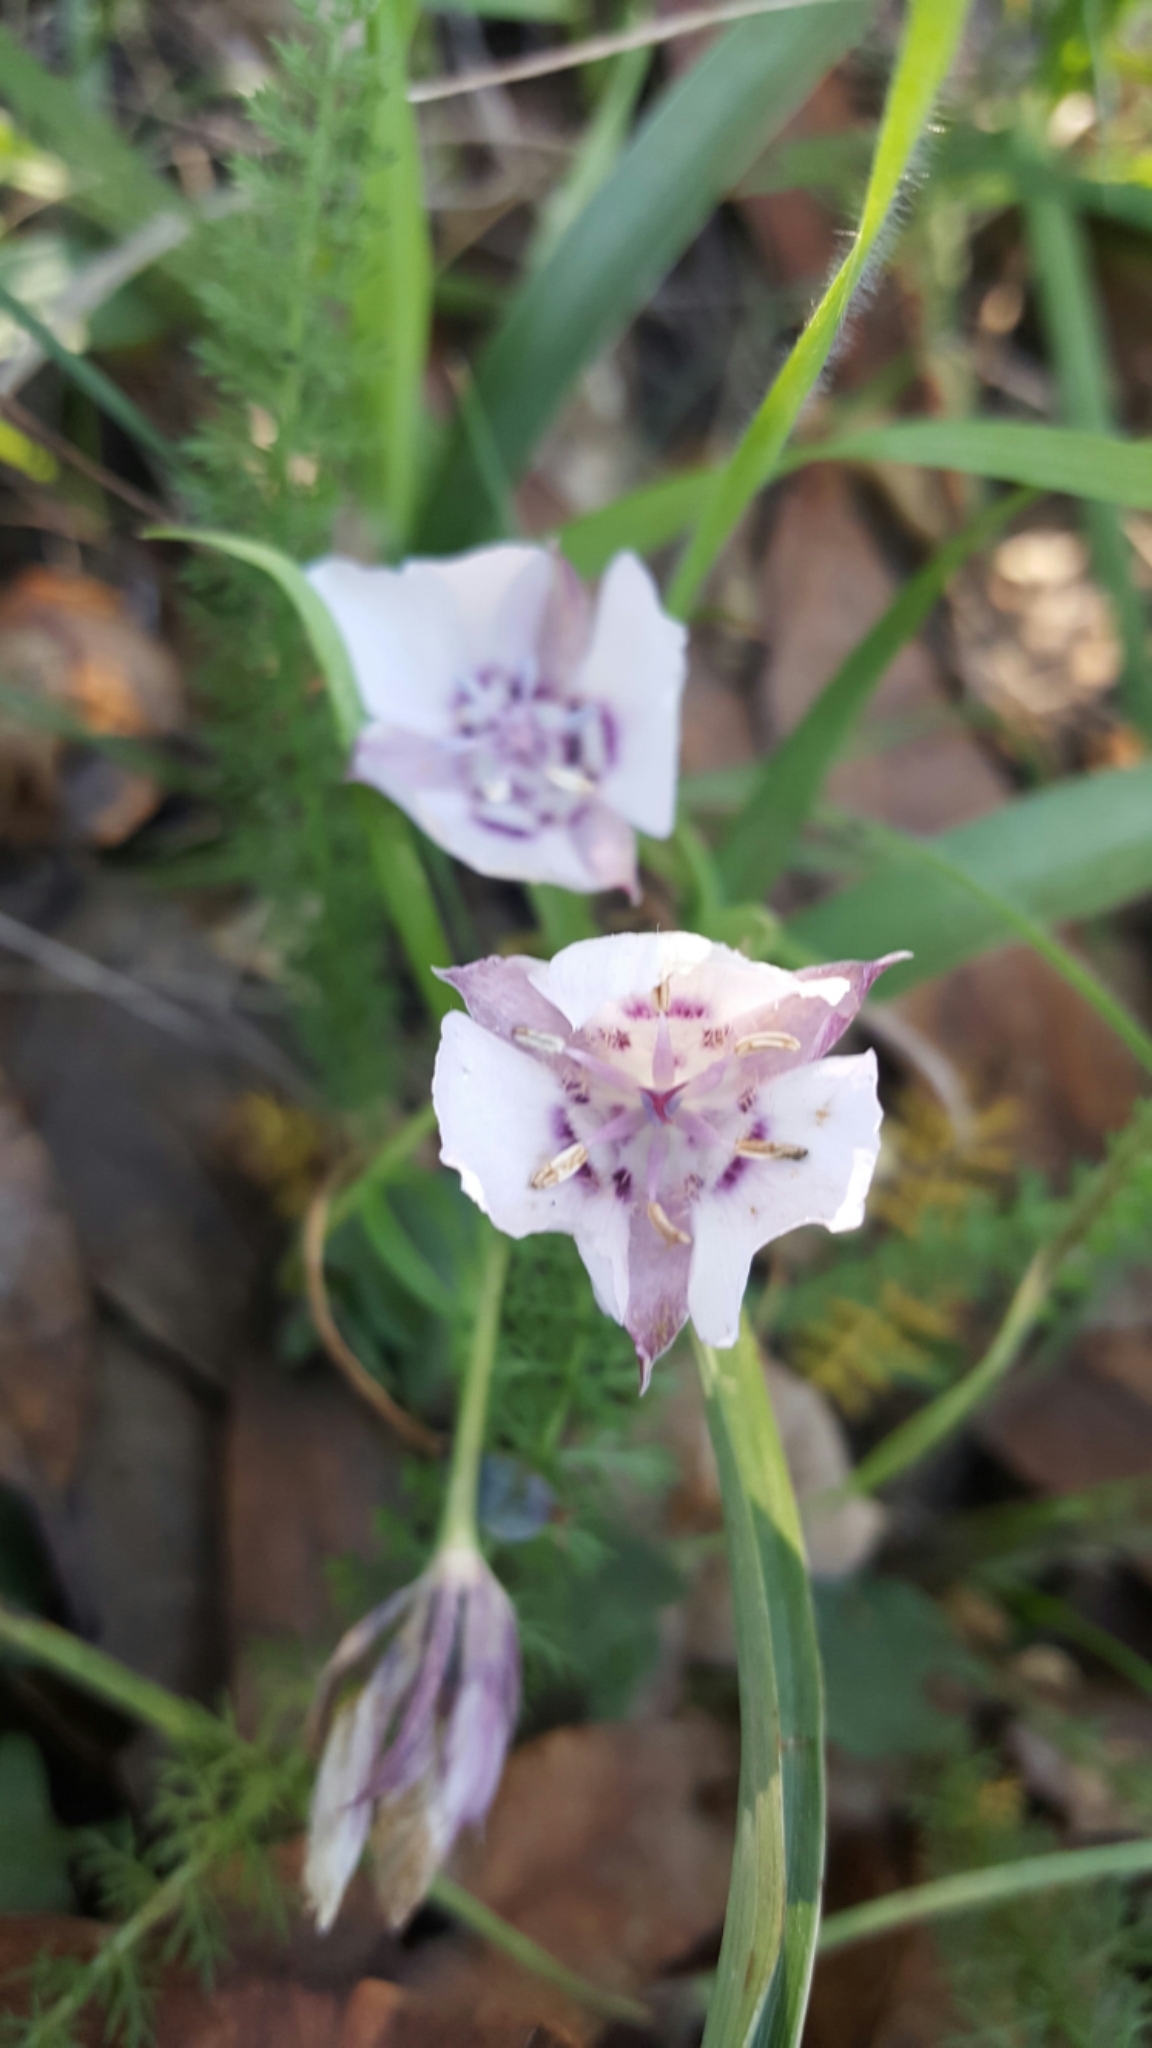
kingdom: Plantae
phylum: Tracheophyta
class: Liliopsida
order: Liliales
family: Liliaceae
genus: Calochortus
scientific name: Calochortus umbellatus
